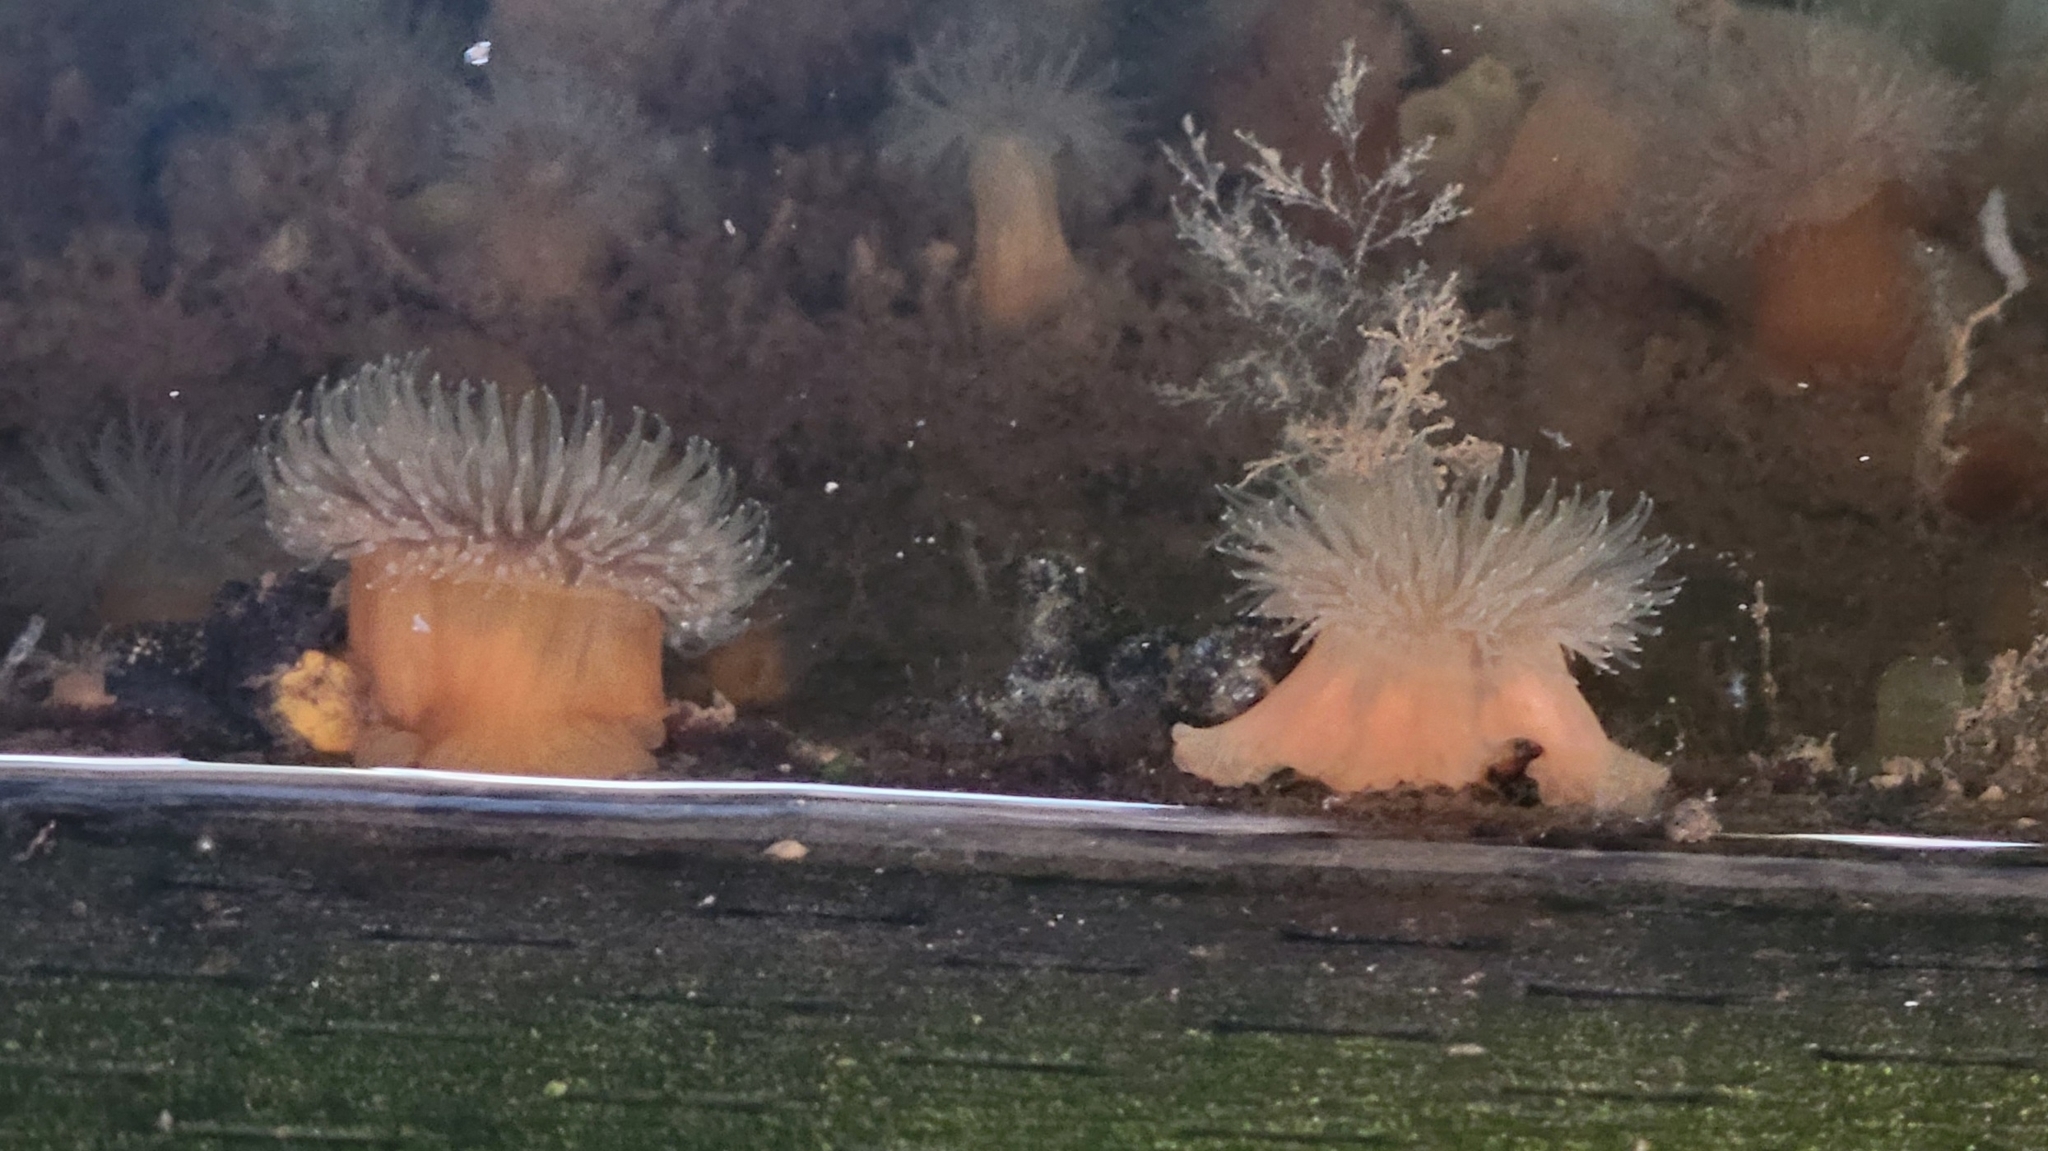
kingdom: Animalia
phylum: Cnidaria
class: Anthozoa
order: Actiniaria
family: Metridiidae
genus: Metridium
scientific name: Metridium senile
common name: Clonal plumose anemone
